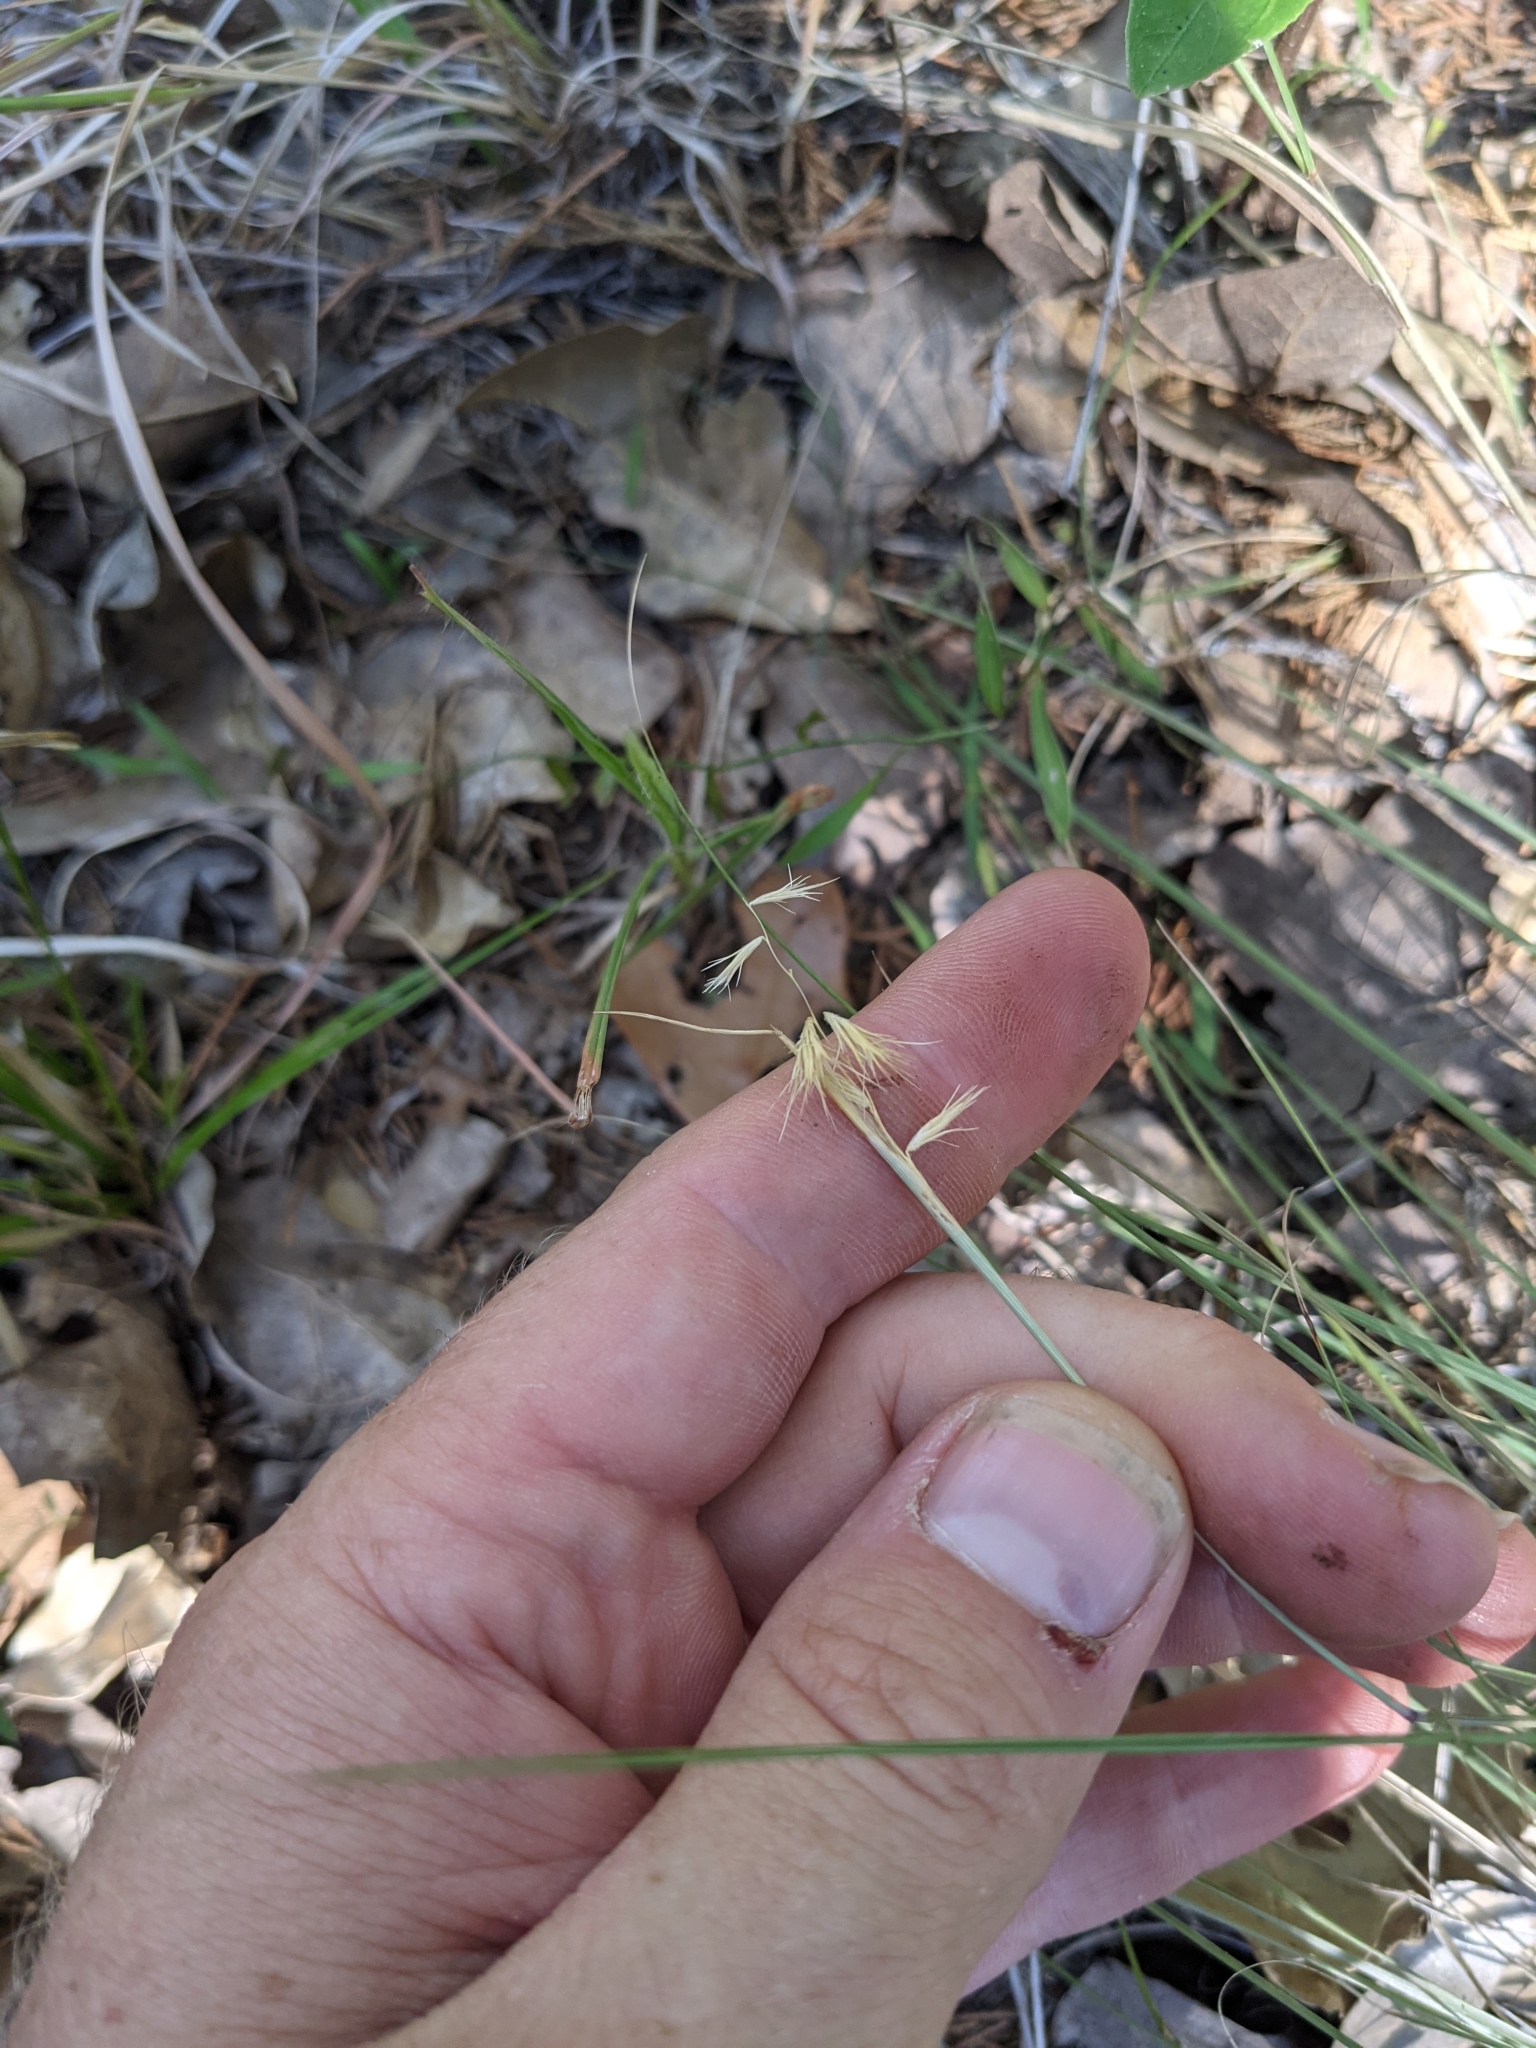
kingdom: Plantae
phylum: Tracheophyta
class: Liliopsida
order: Poales
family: Poaceae
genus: Bouteloua
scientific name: Bouteloua rigidiseta
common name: Texas grama
